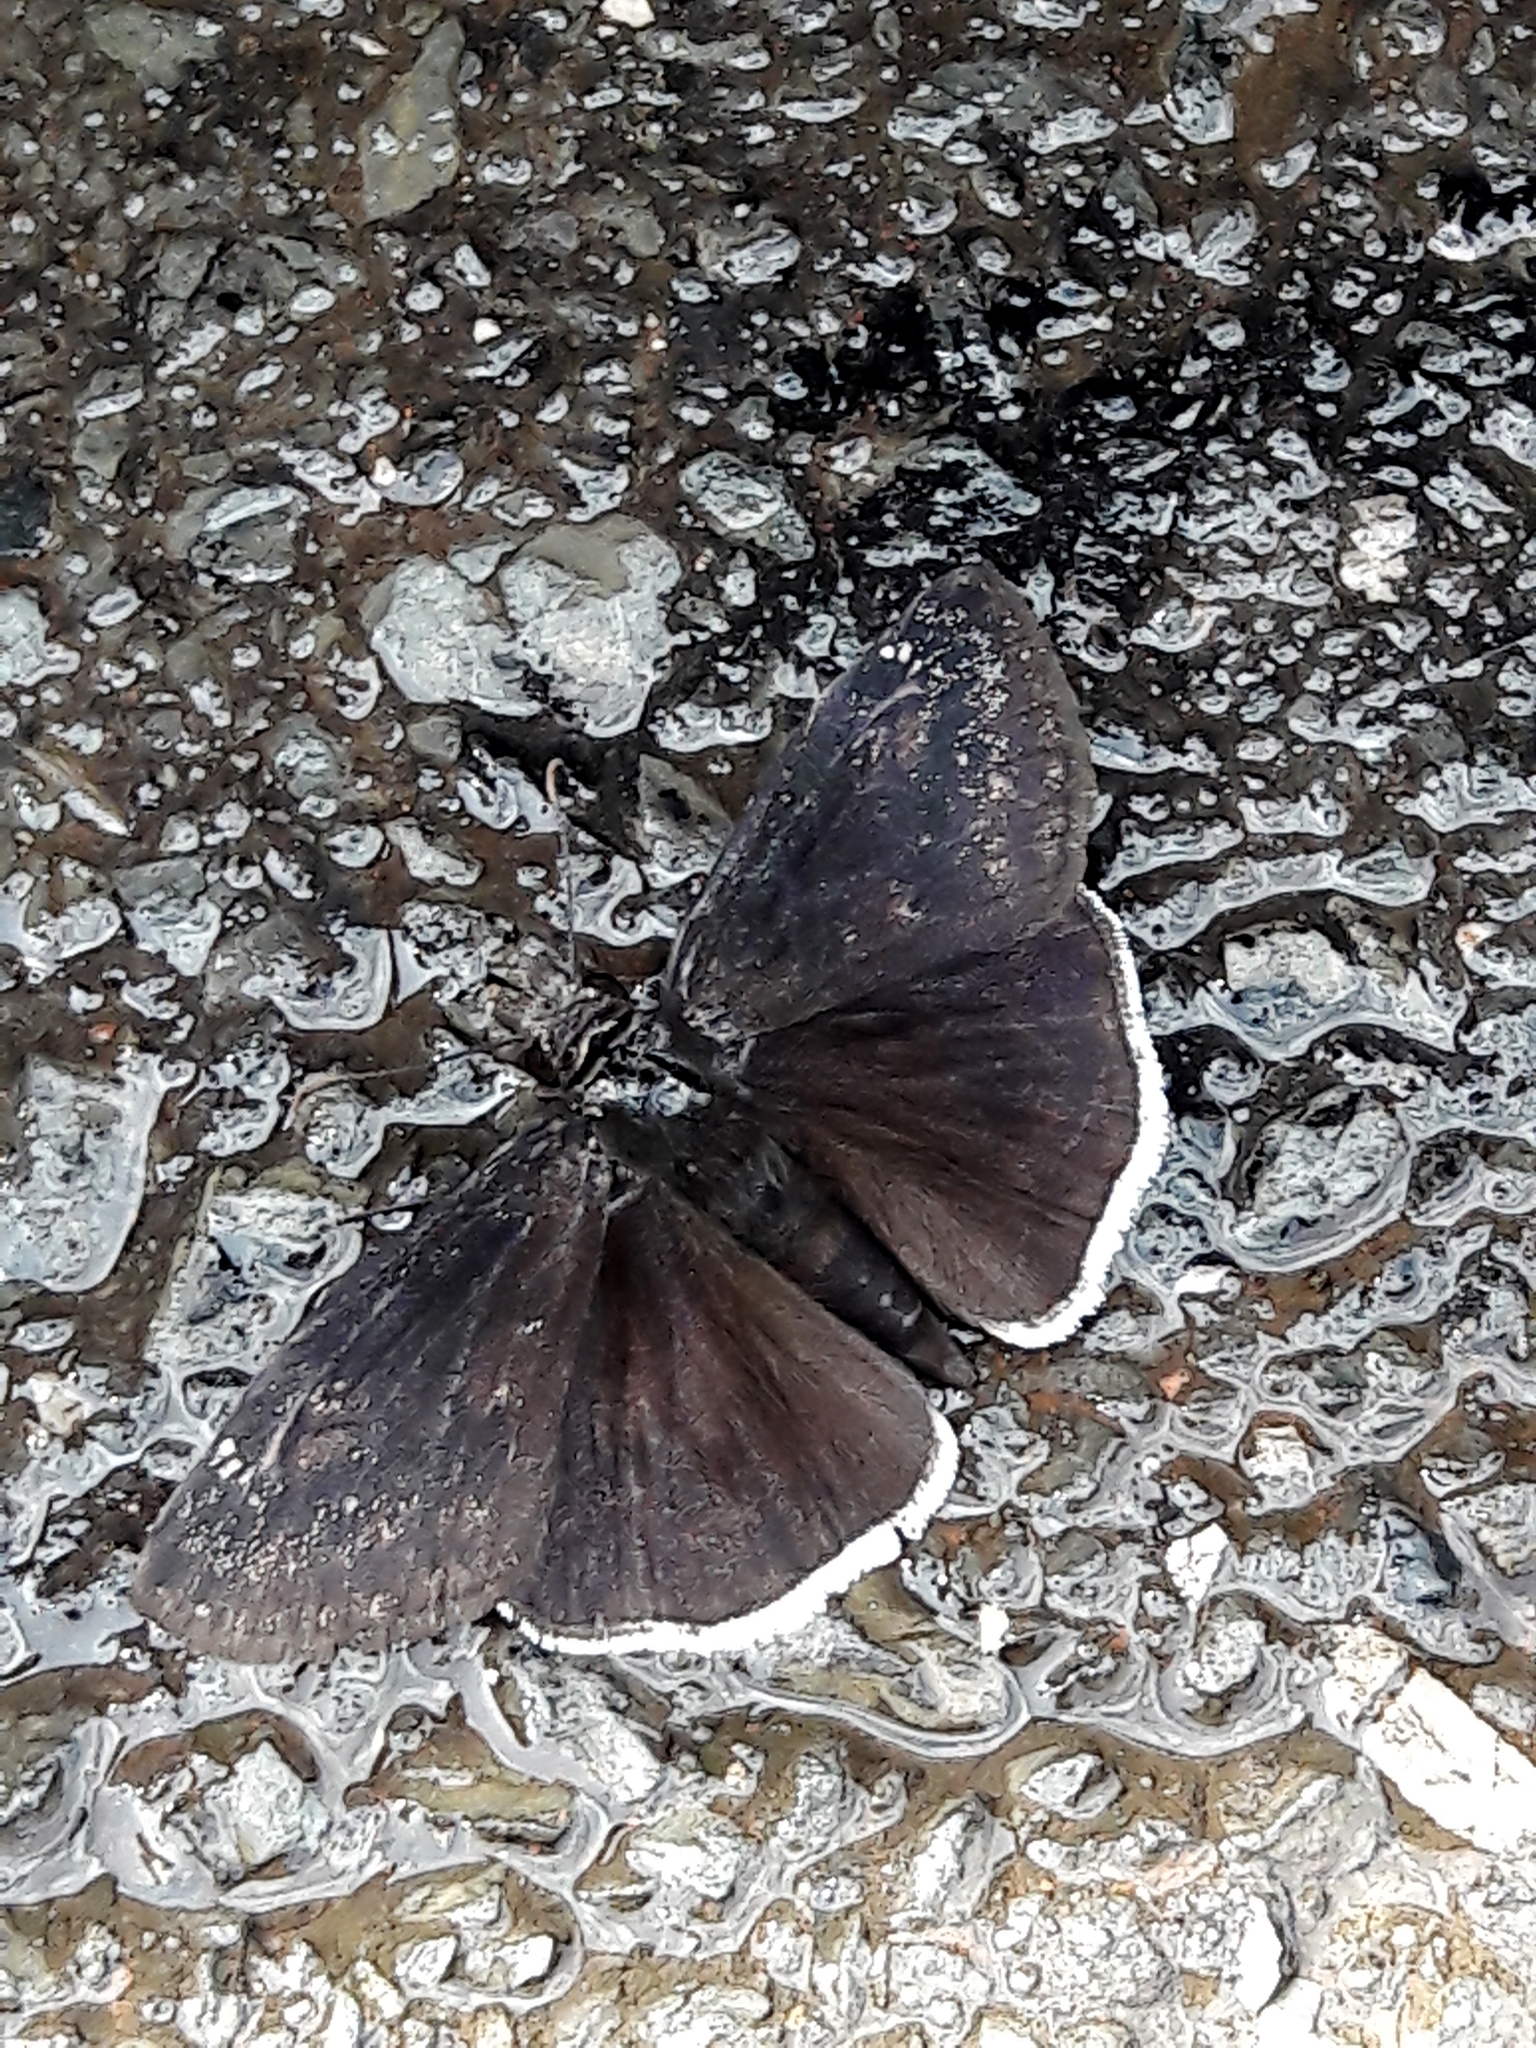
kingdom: Animalia
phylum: Arthropoda
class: Insecta
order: Lepidoptera
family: Hesperiidae
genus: Erynnis
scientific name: Erynnis funeralis
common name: Funereal duskywing
